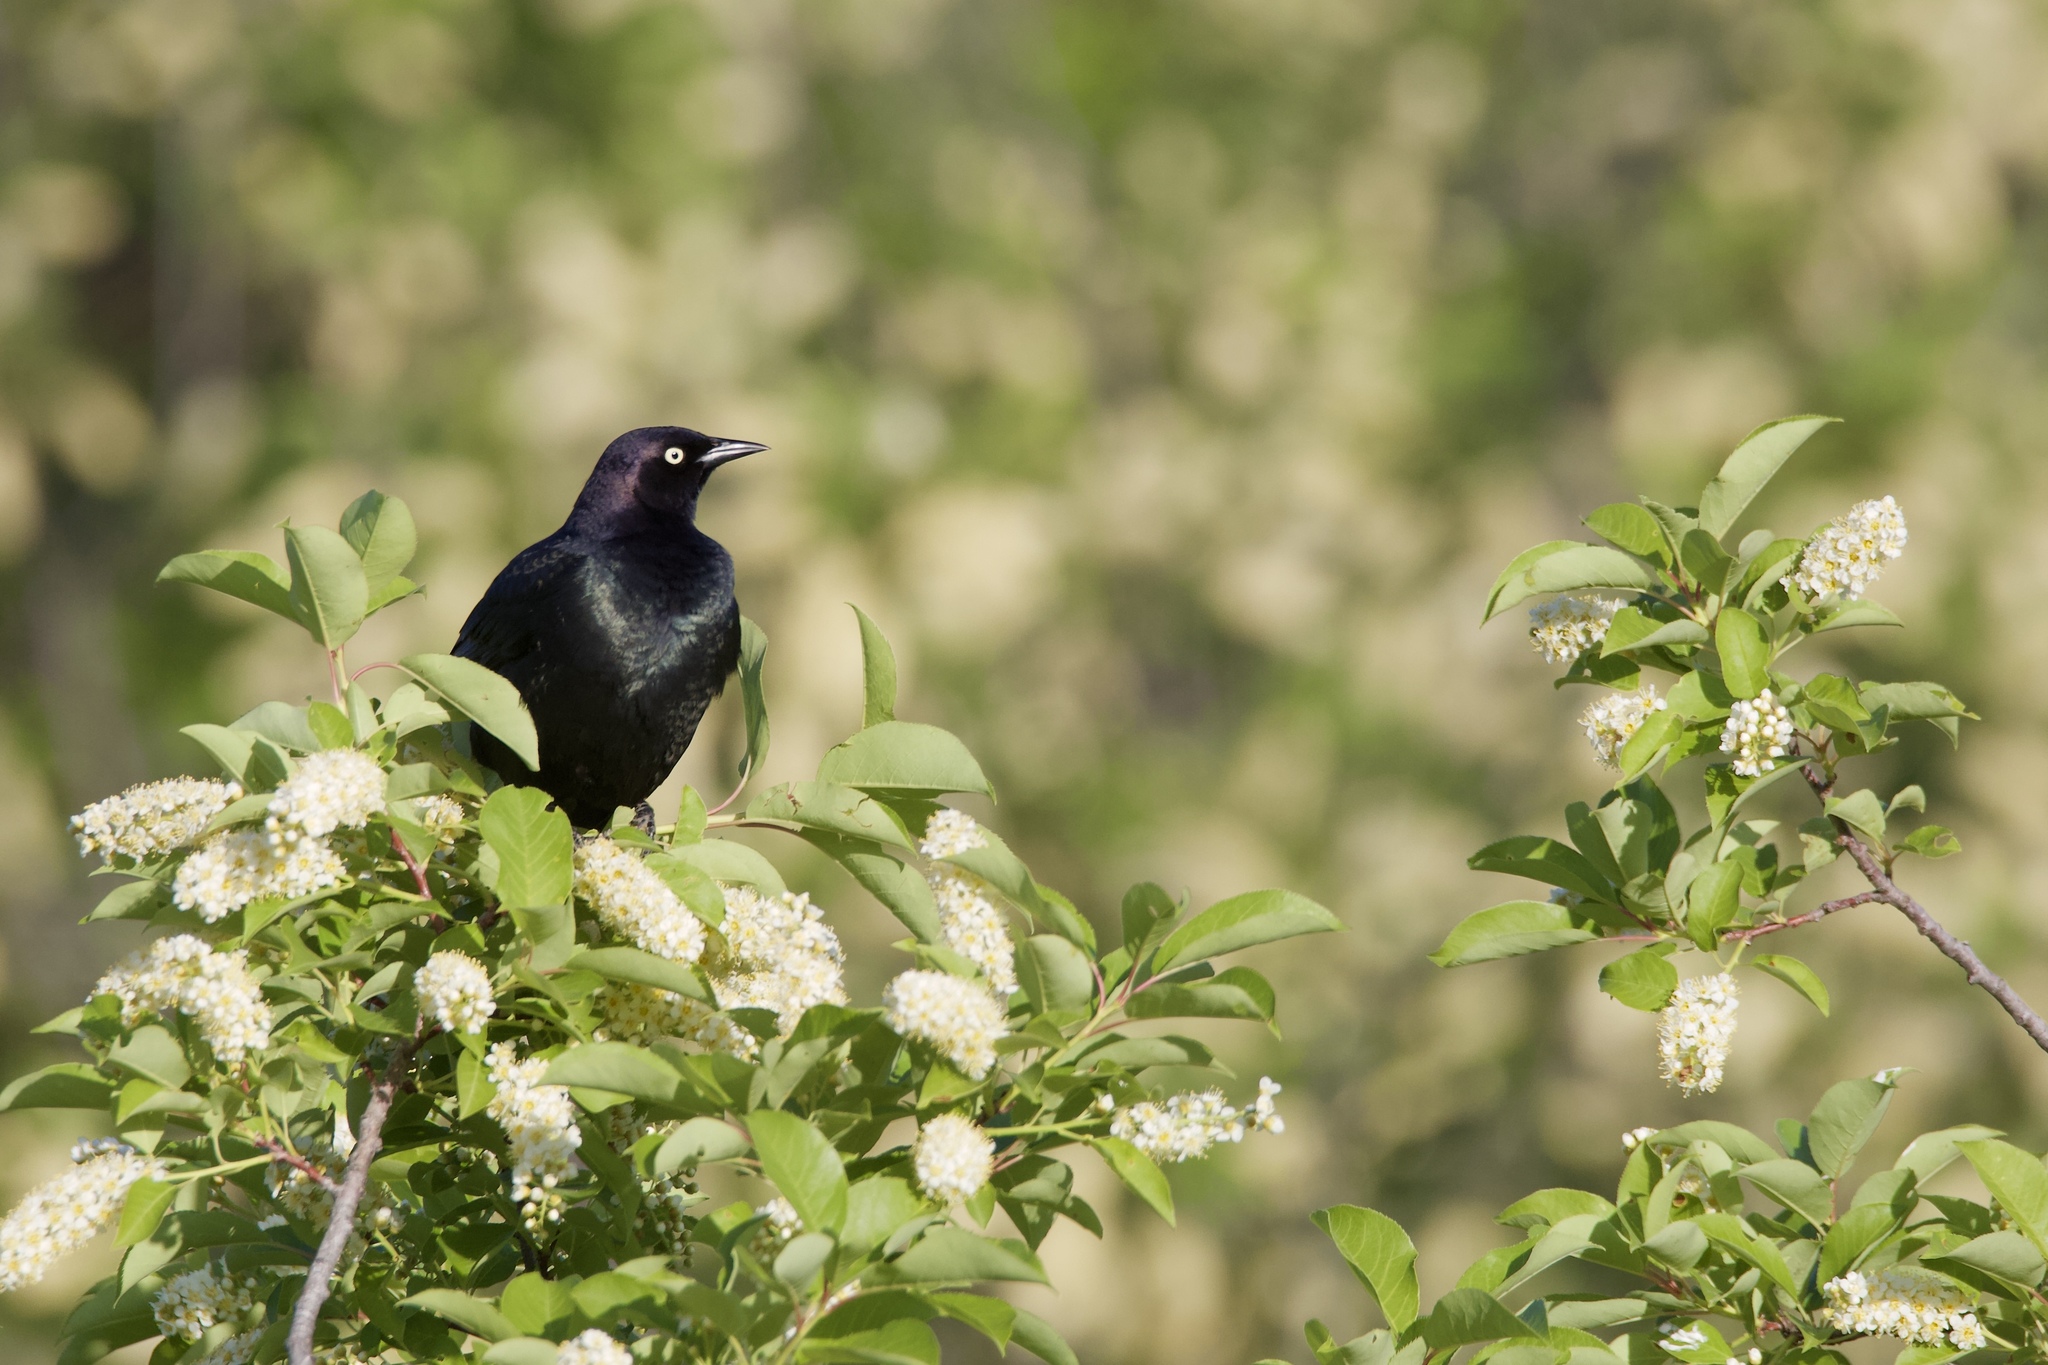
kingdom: Animalia
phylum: Chordata
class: Aves
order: Passeriformes
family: Icteridae
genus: Quiscalus
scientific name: Quiscalus quiscula
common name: Common grackle
